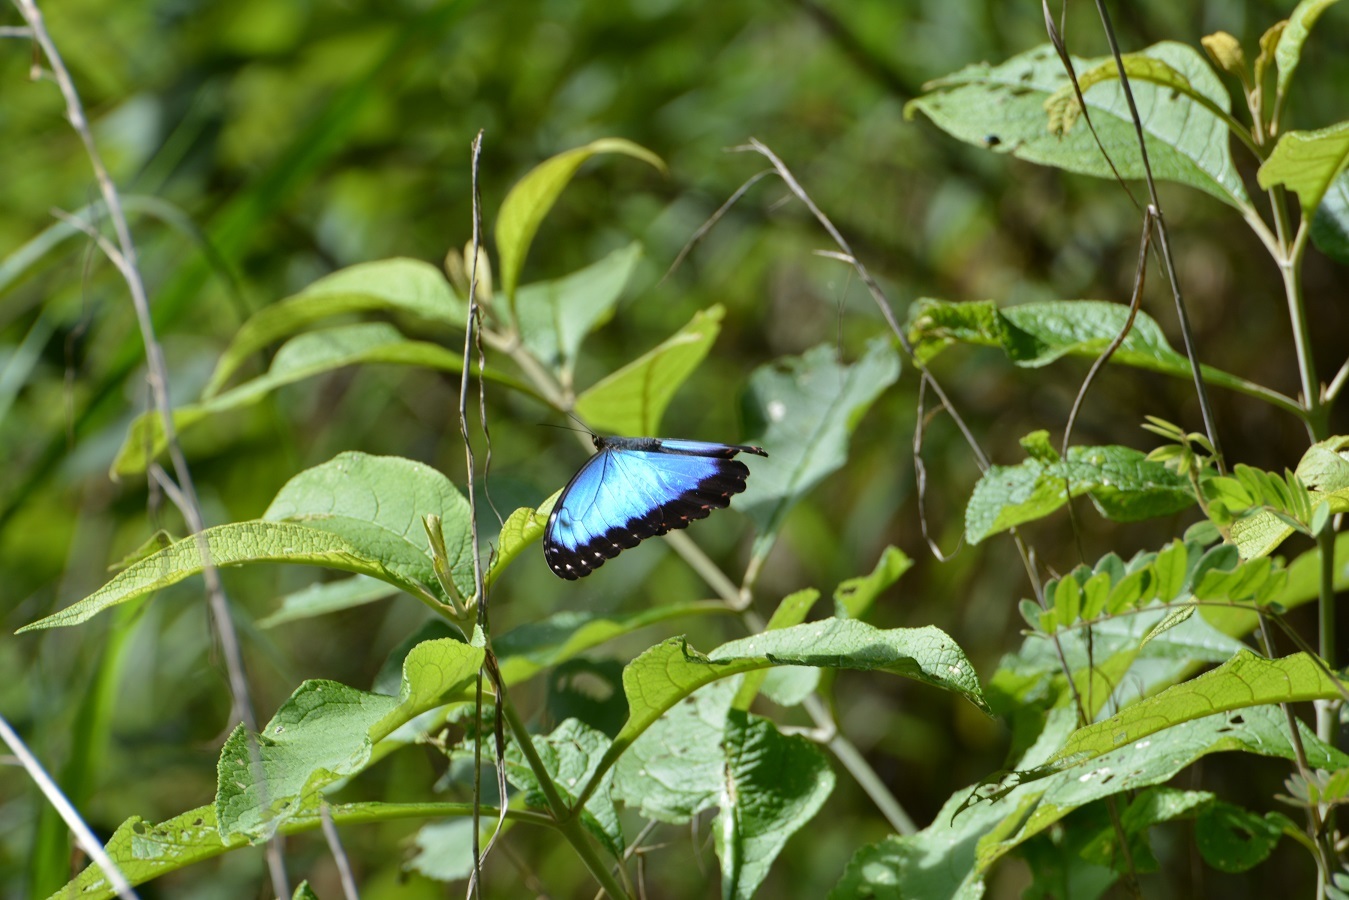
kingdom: Animalia
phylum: Arthropoda
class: Insecta
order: Lepidoptera
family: Nymphalidae
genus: Morpho
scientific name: Morpho helenor
